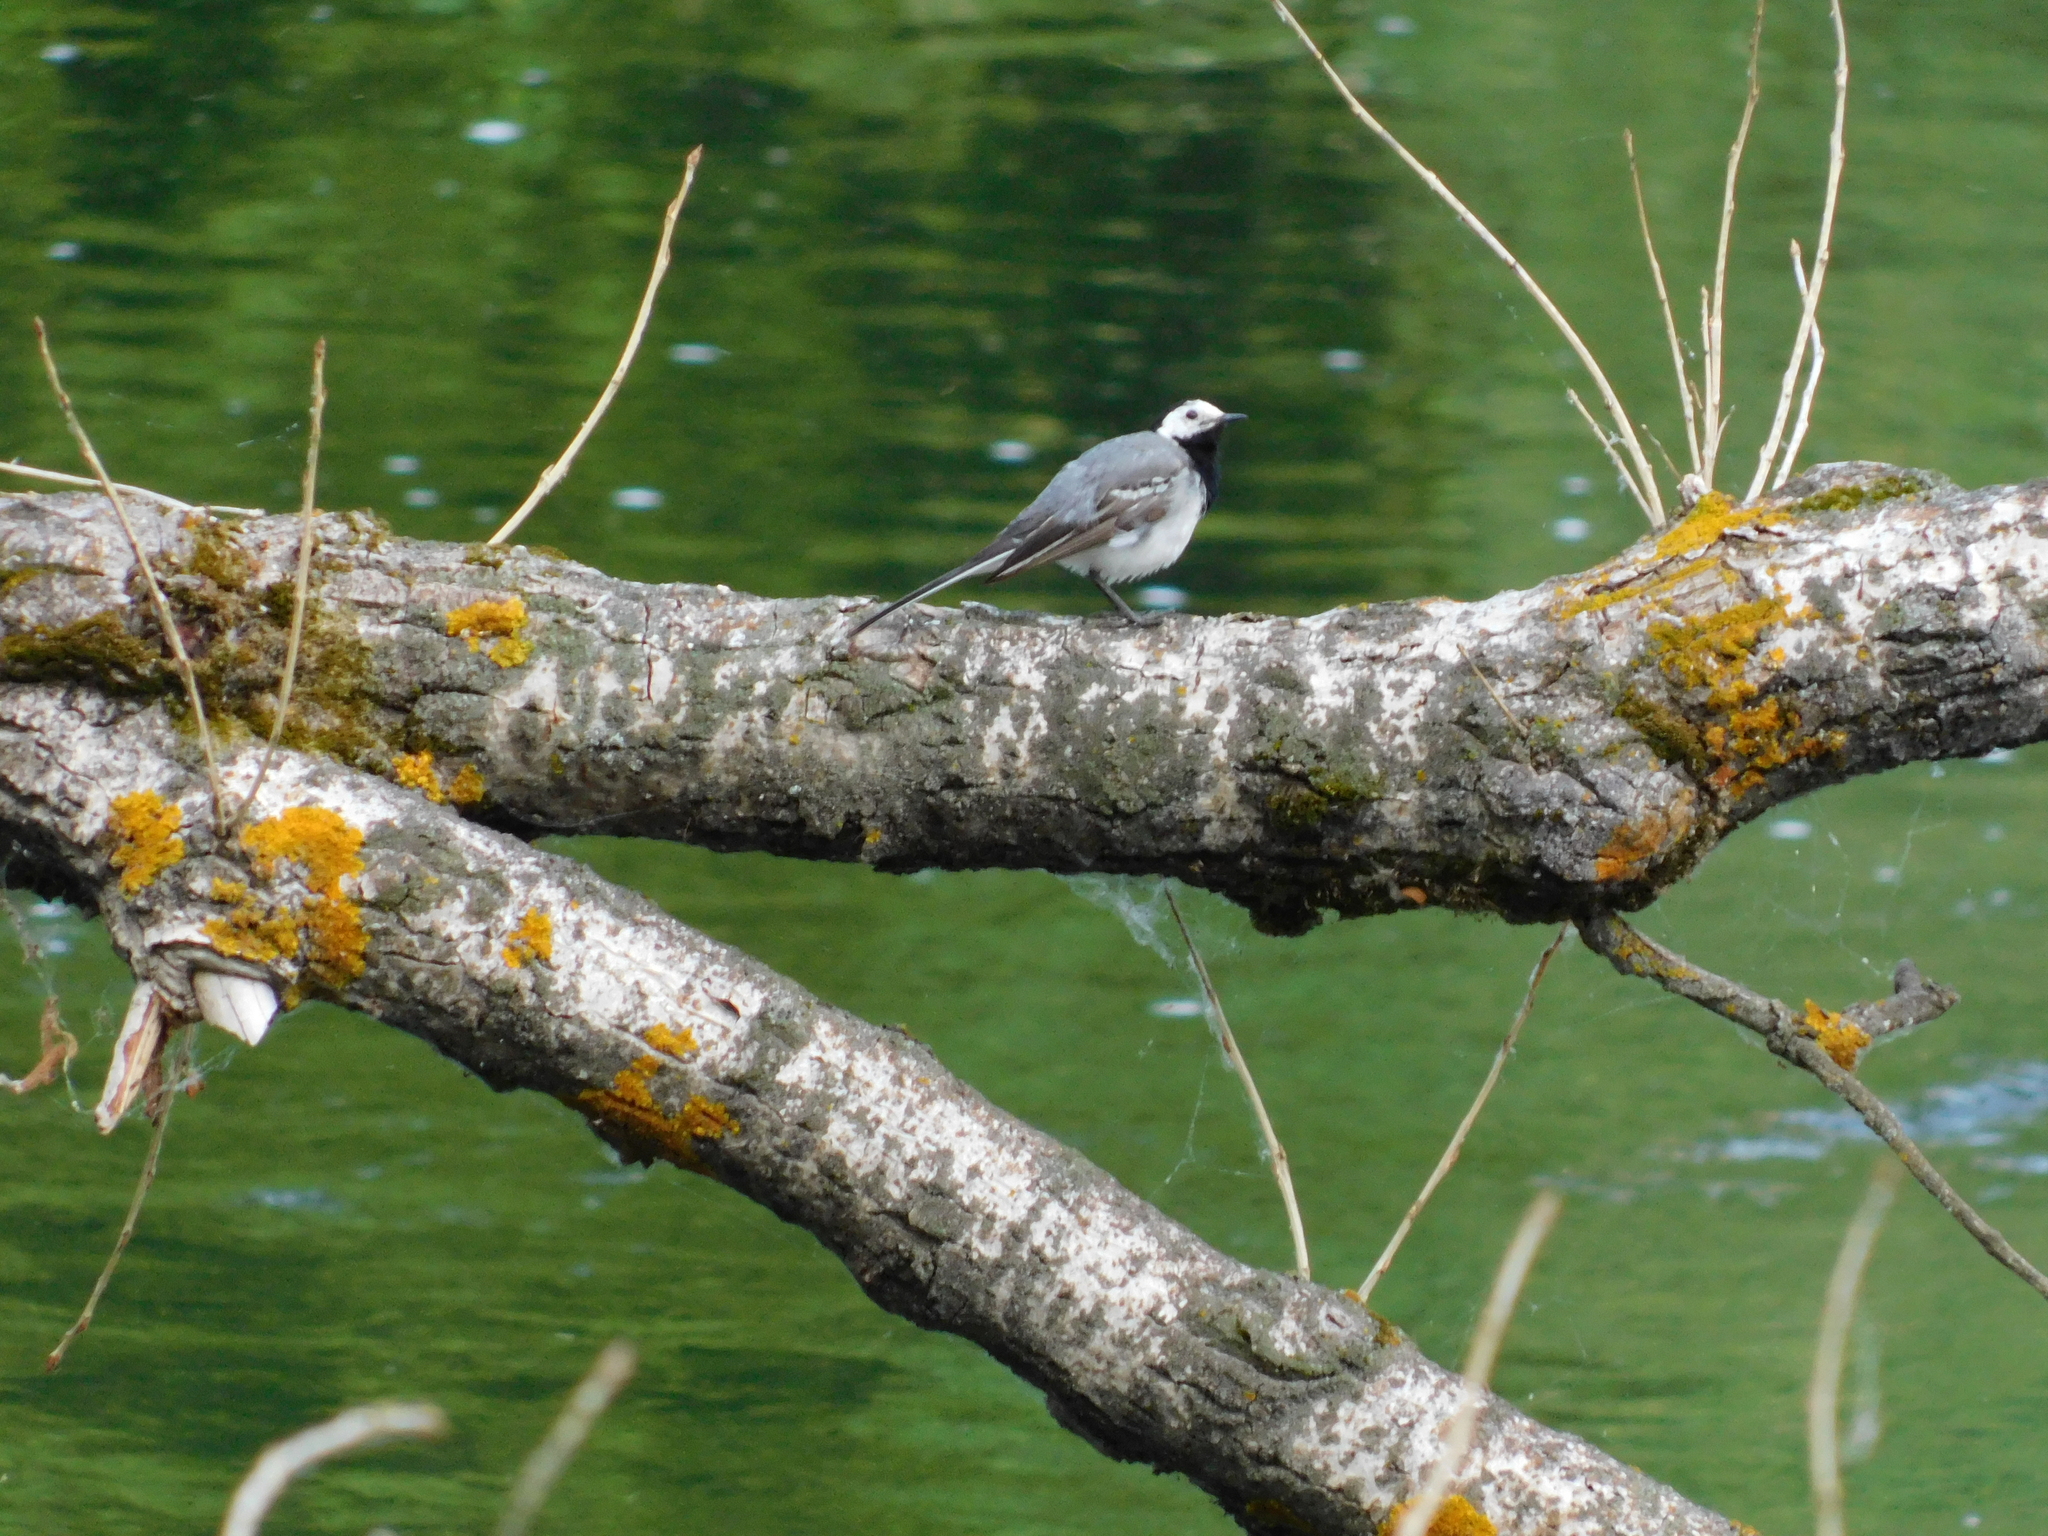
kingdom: Animalia
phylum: Chordata
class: Aves
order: Passeriformes
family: Motacillidae
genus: Motacilla
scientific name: Motacilla alba
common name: White wagtail
